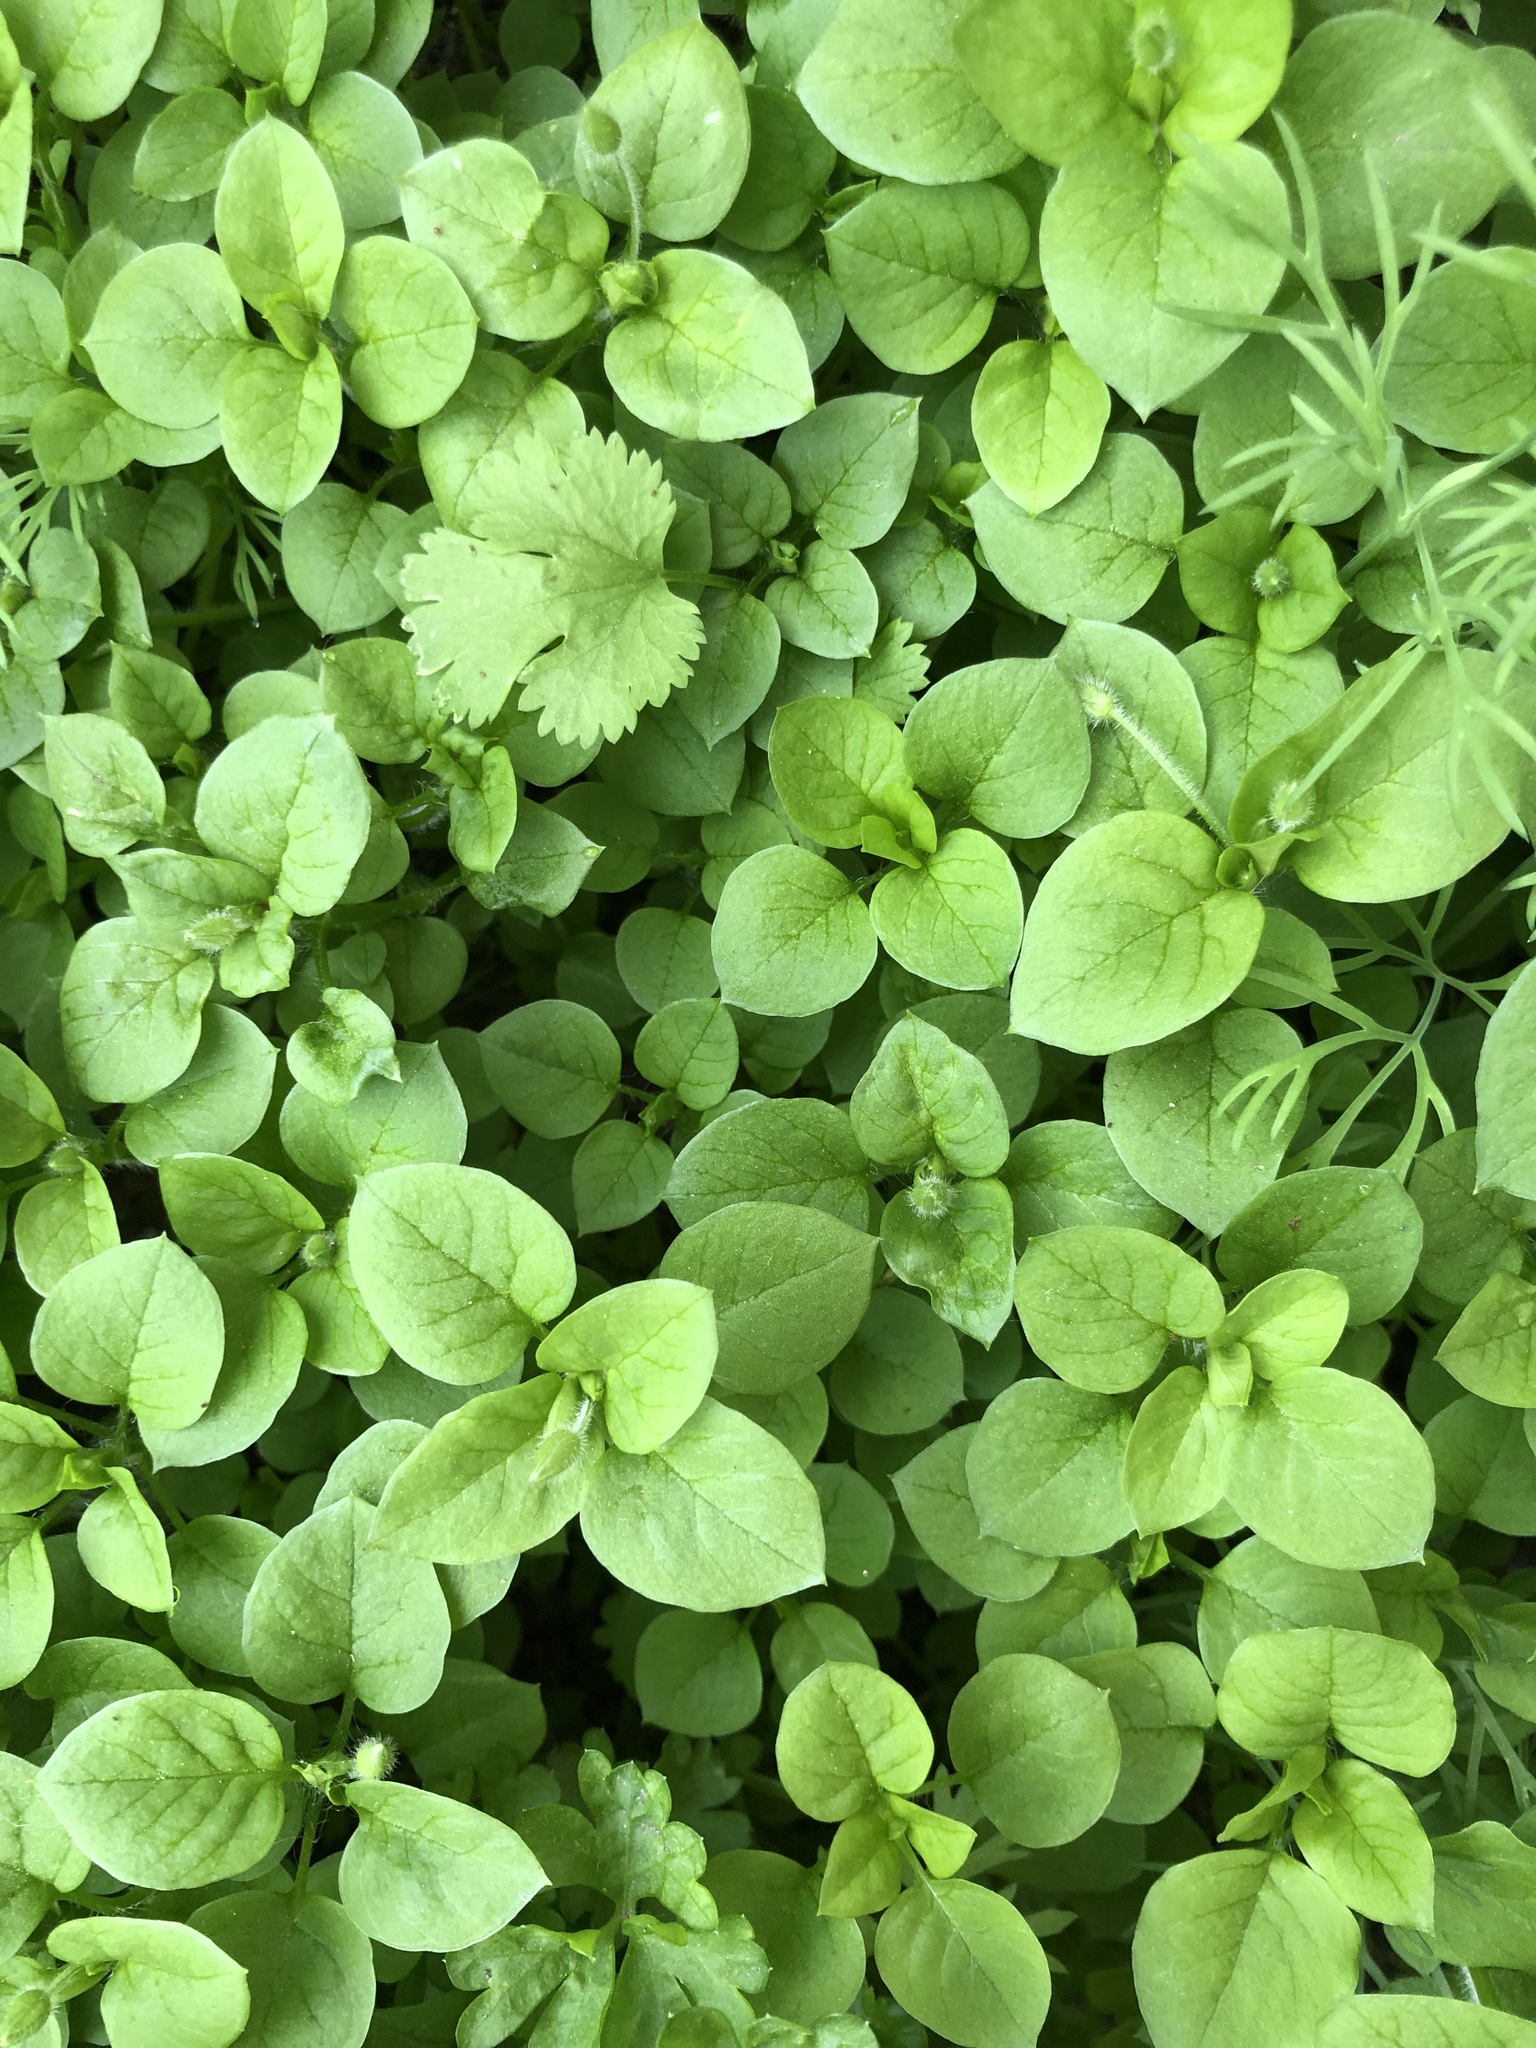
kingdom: Plantae
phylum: Tracheophyta
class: Magnoliopsida
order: Caryophyllales
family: Caryophyllaceae
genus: Stellaria
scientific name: Stellaria media
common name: Common chickweed
